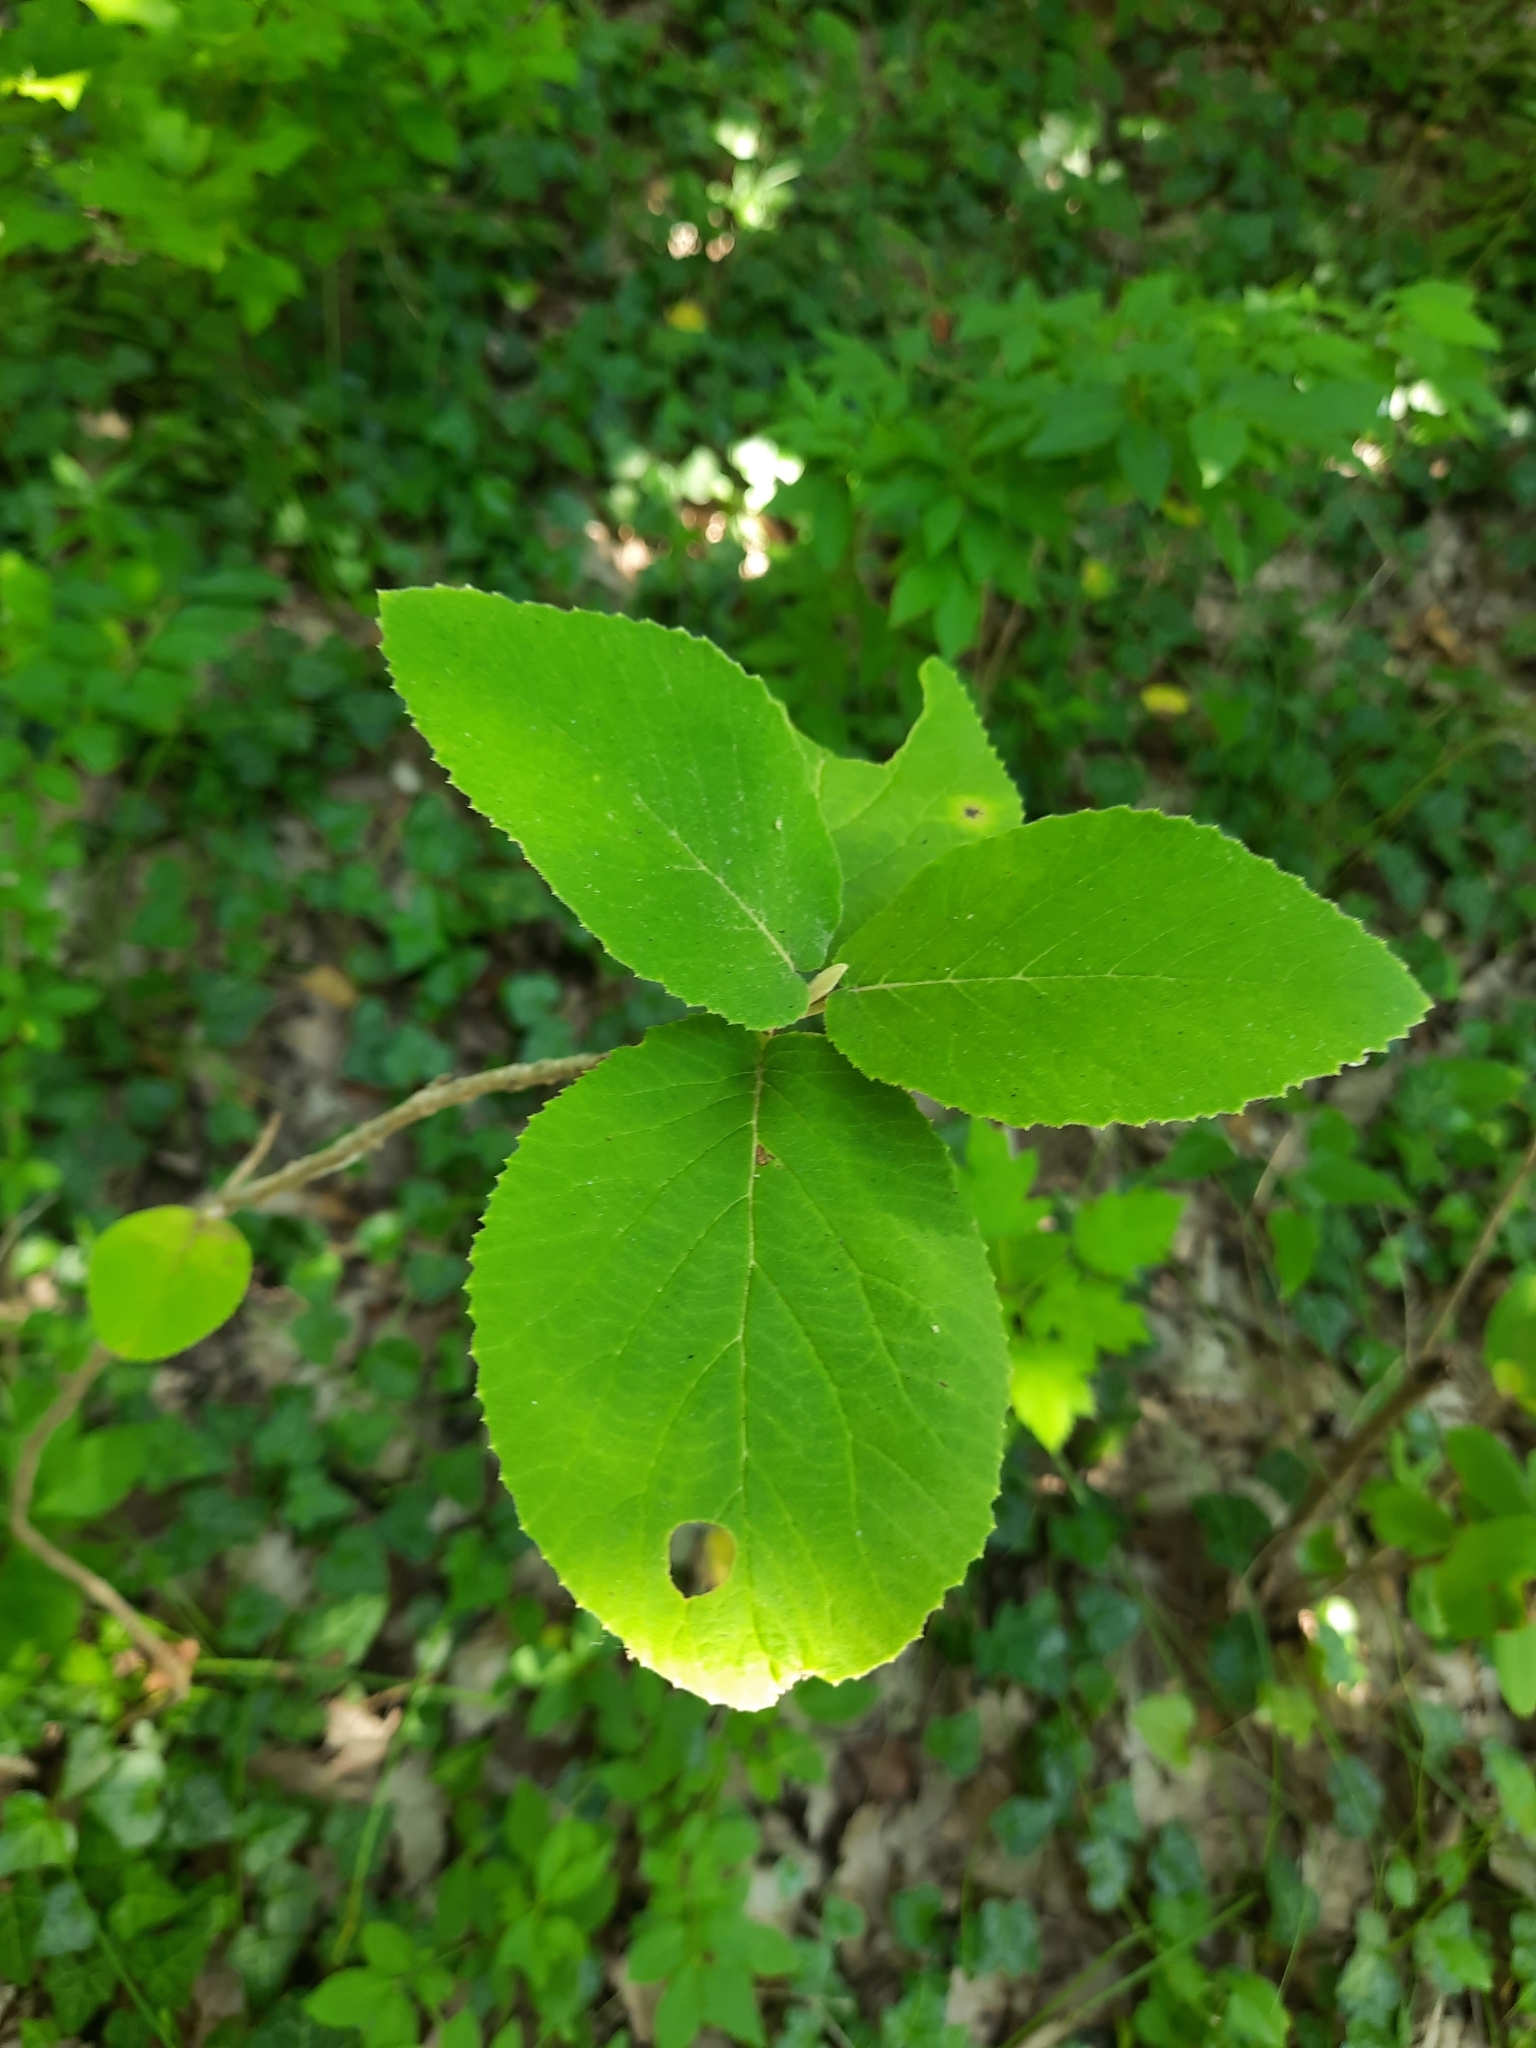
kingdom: Plantae
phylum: Tracheophyta
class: Magnoliopsida
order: Dipsacales
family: Viburnaceae
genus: Viburnum
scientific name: Viburnum lantana
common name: Wayfaring tree
